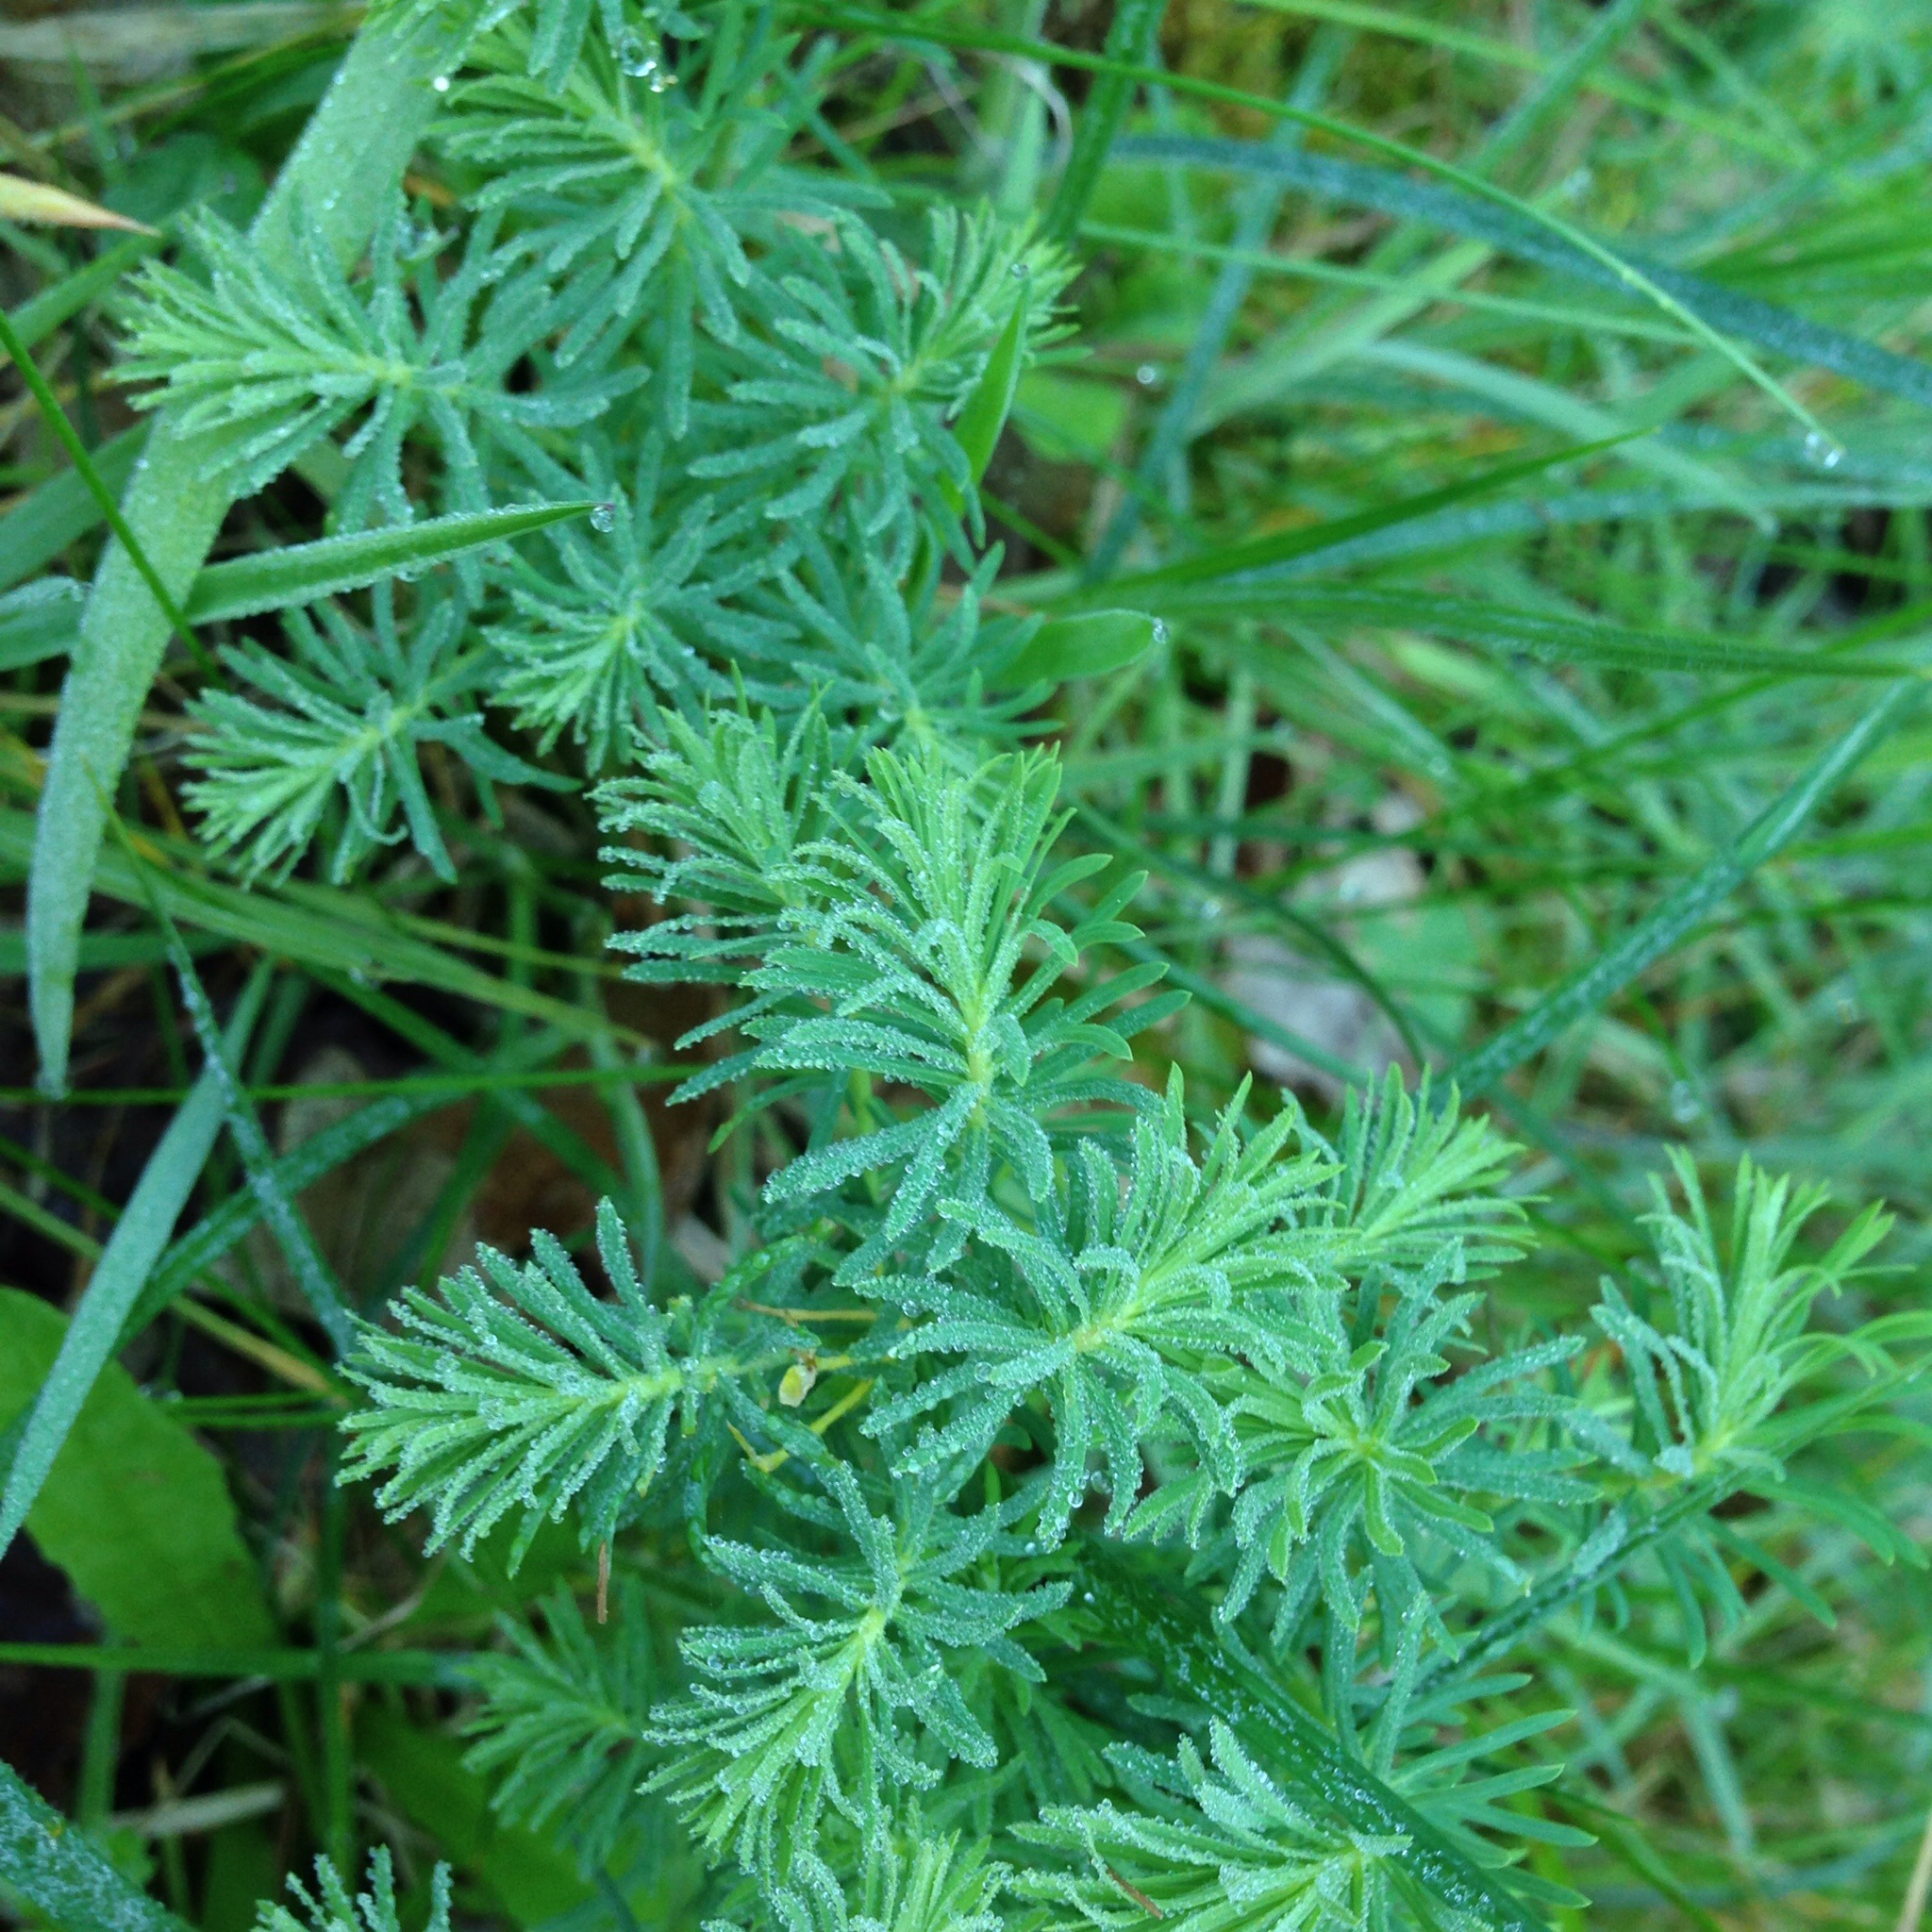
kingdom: Plantae
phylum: Tracheophyta
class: Magnoliopsida
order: Malpighiales
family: Euphorbiaceae
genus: Euphorbia
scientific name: Euphorbia cyparissias
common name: Cypress spurge
